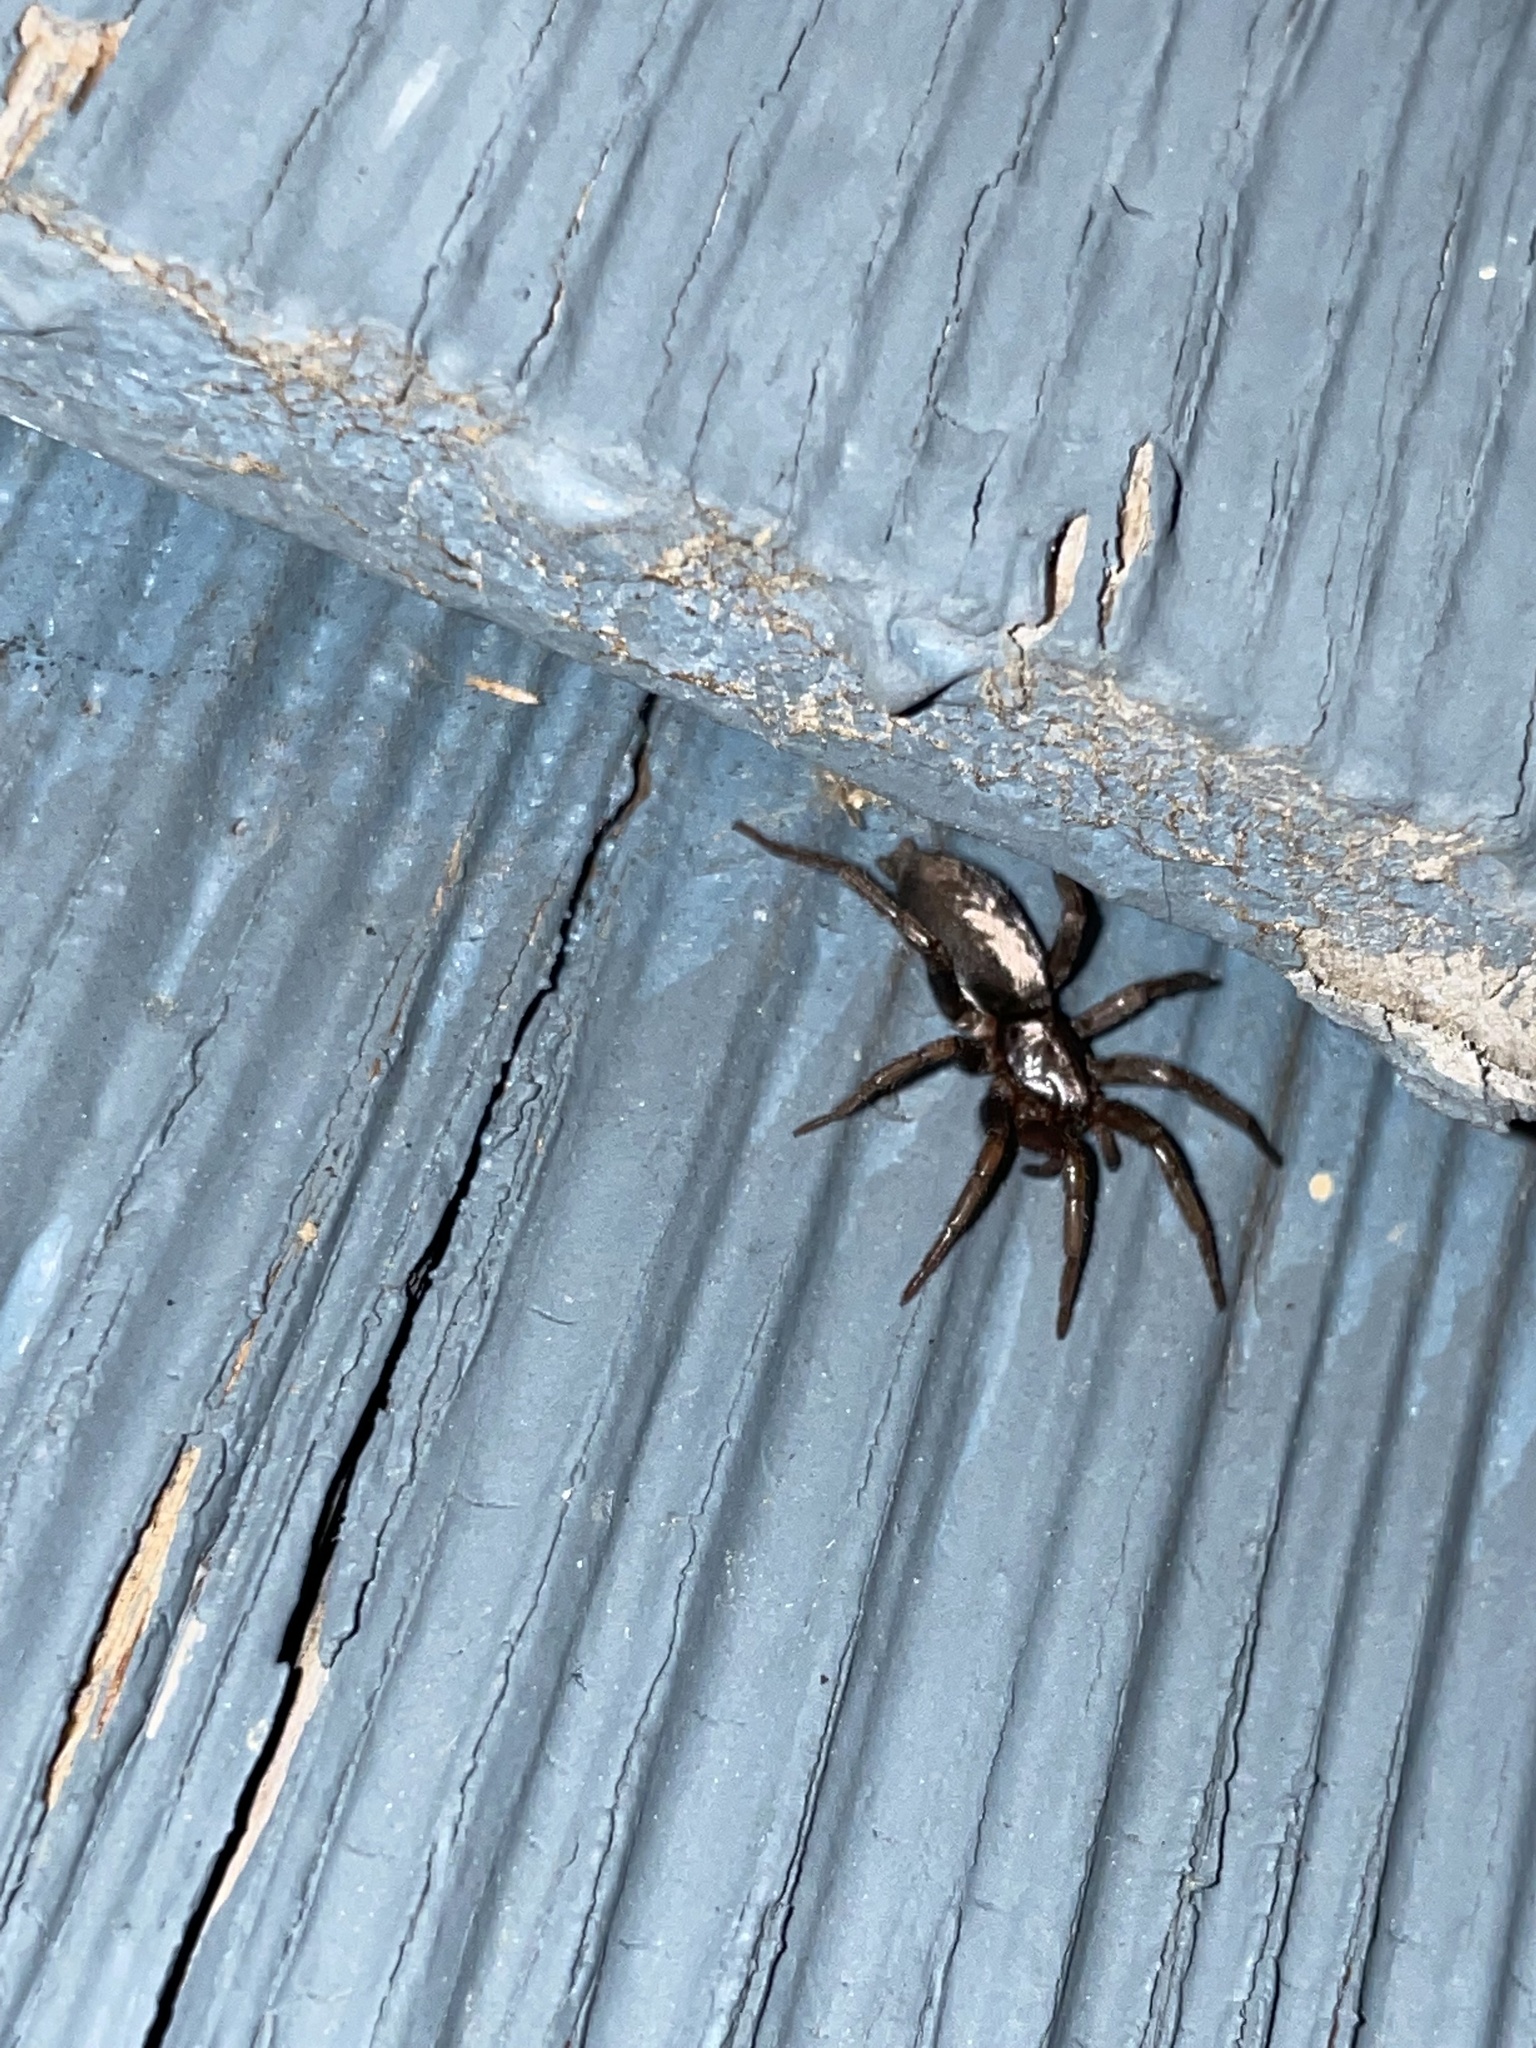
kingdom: Animalia
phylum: Arthropoda
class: Arachnida
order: Araneae
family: Gnaphosidae
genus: Herpyllus
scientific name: Herpyllus ecclesiasticus
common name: Eastern parson spider
